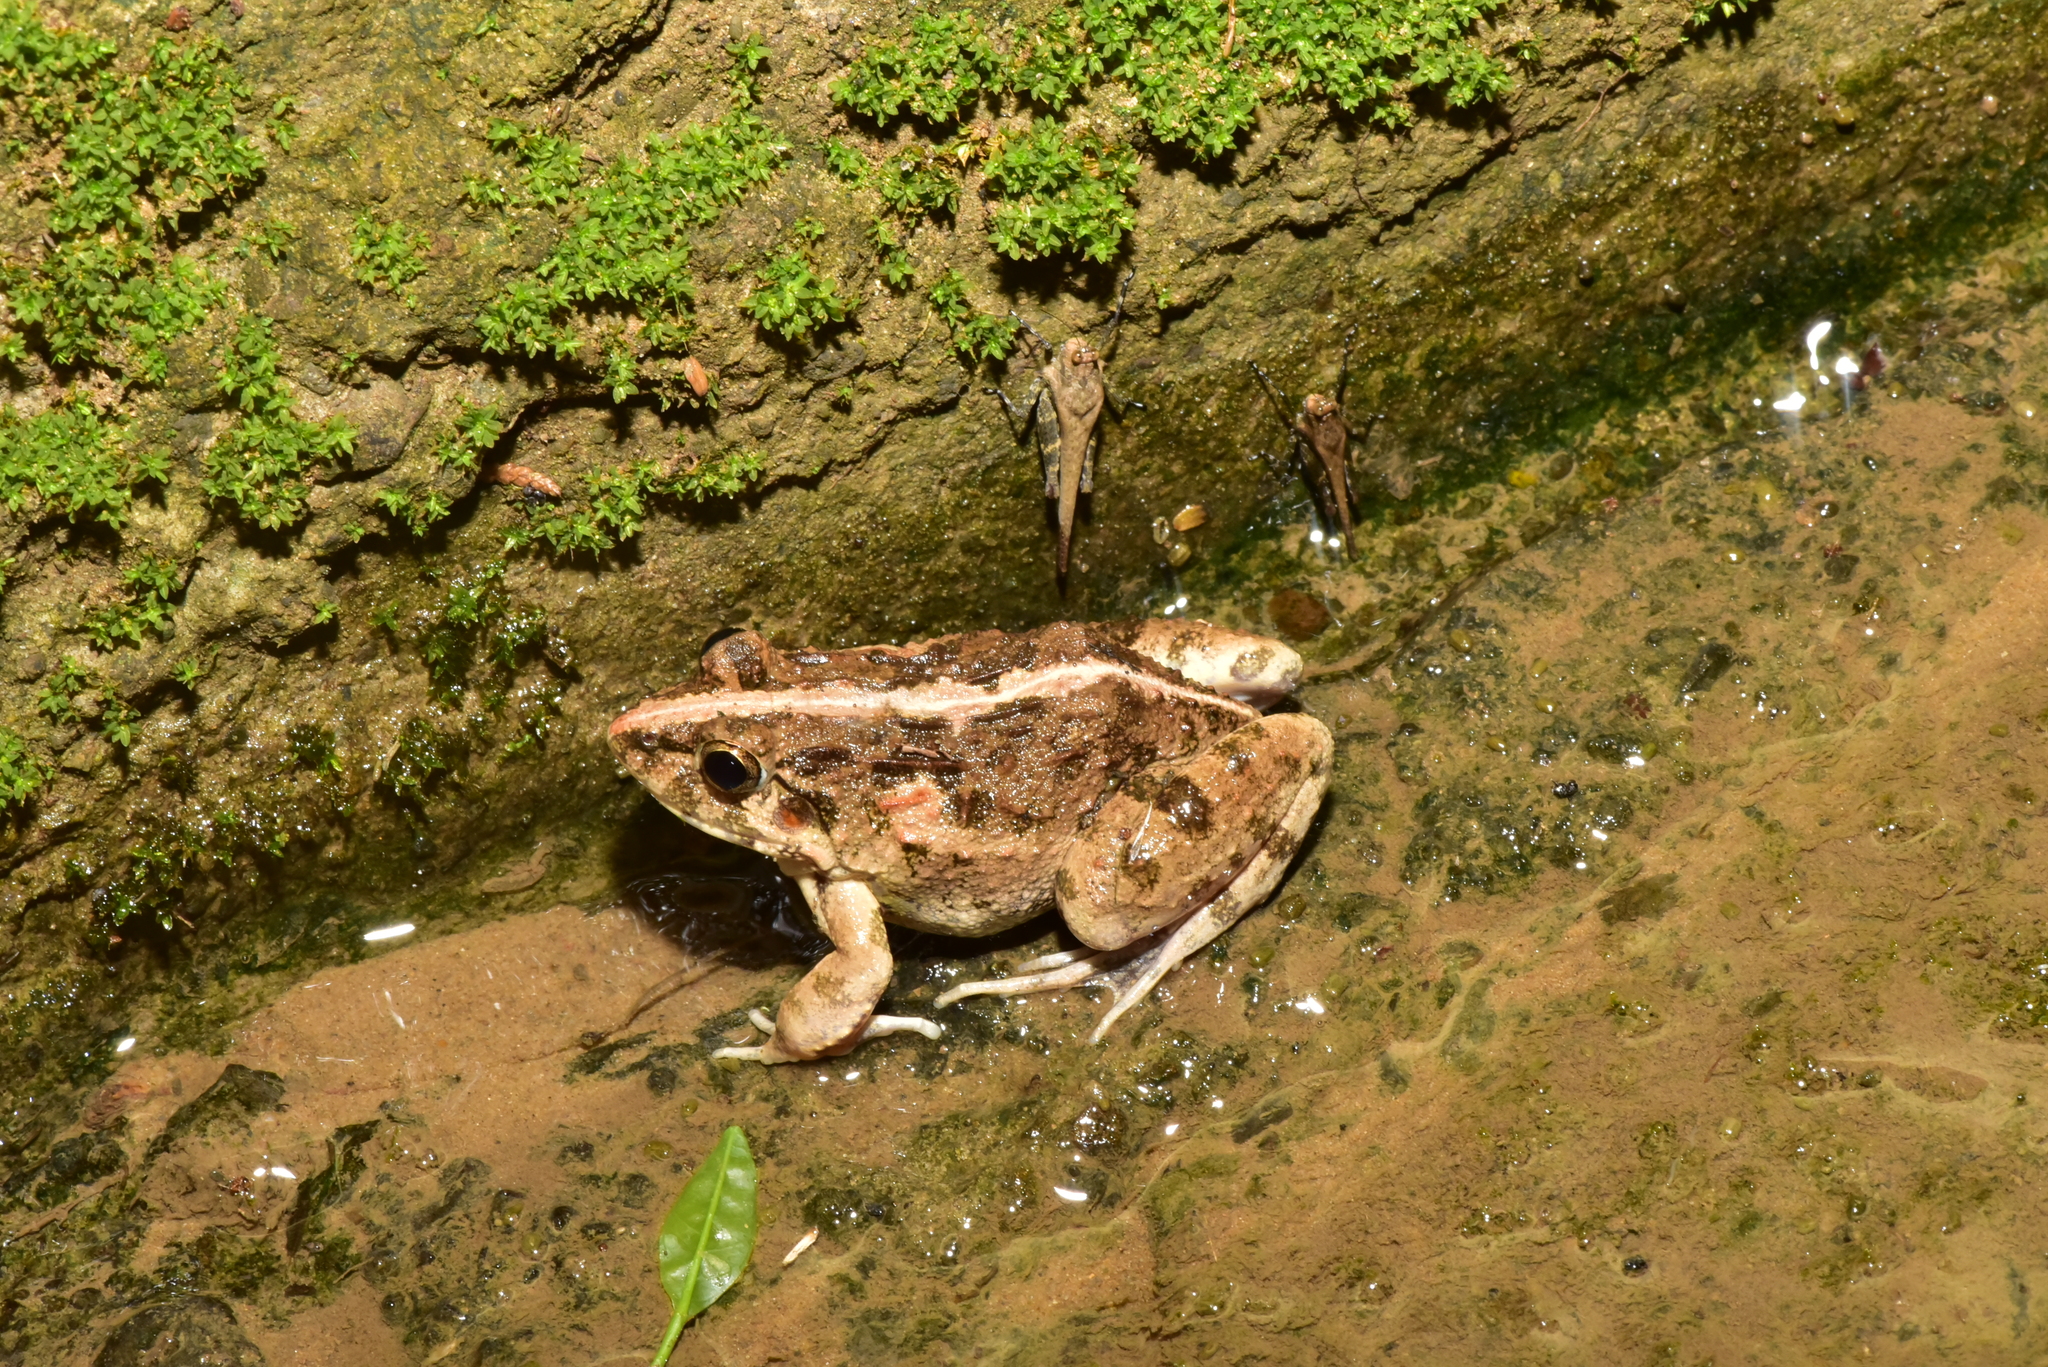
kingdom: Animalia
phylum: Chordata
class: Amphibia
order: Anura
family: Dicroglossidae
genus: Fejervarya
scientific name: Fejervarya limnocharis
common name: Asian grass frog/common pond frog/field frog/grass frog/indian rice frog
